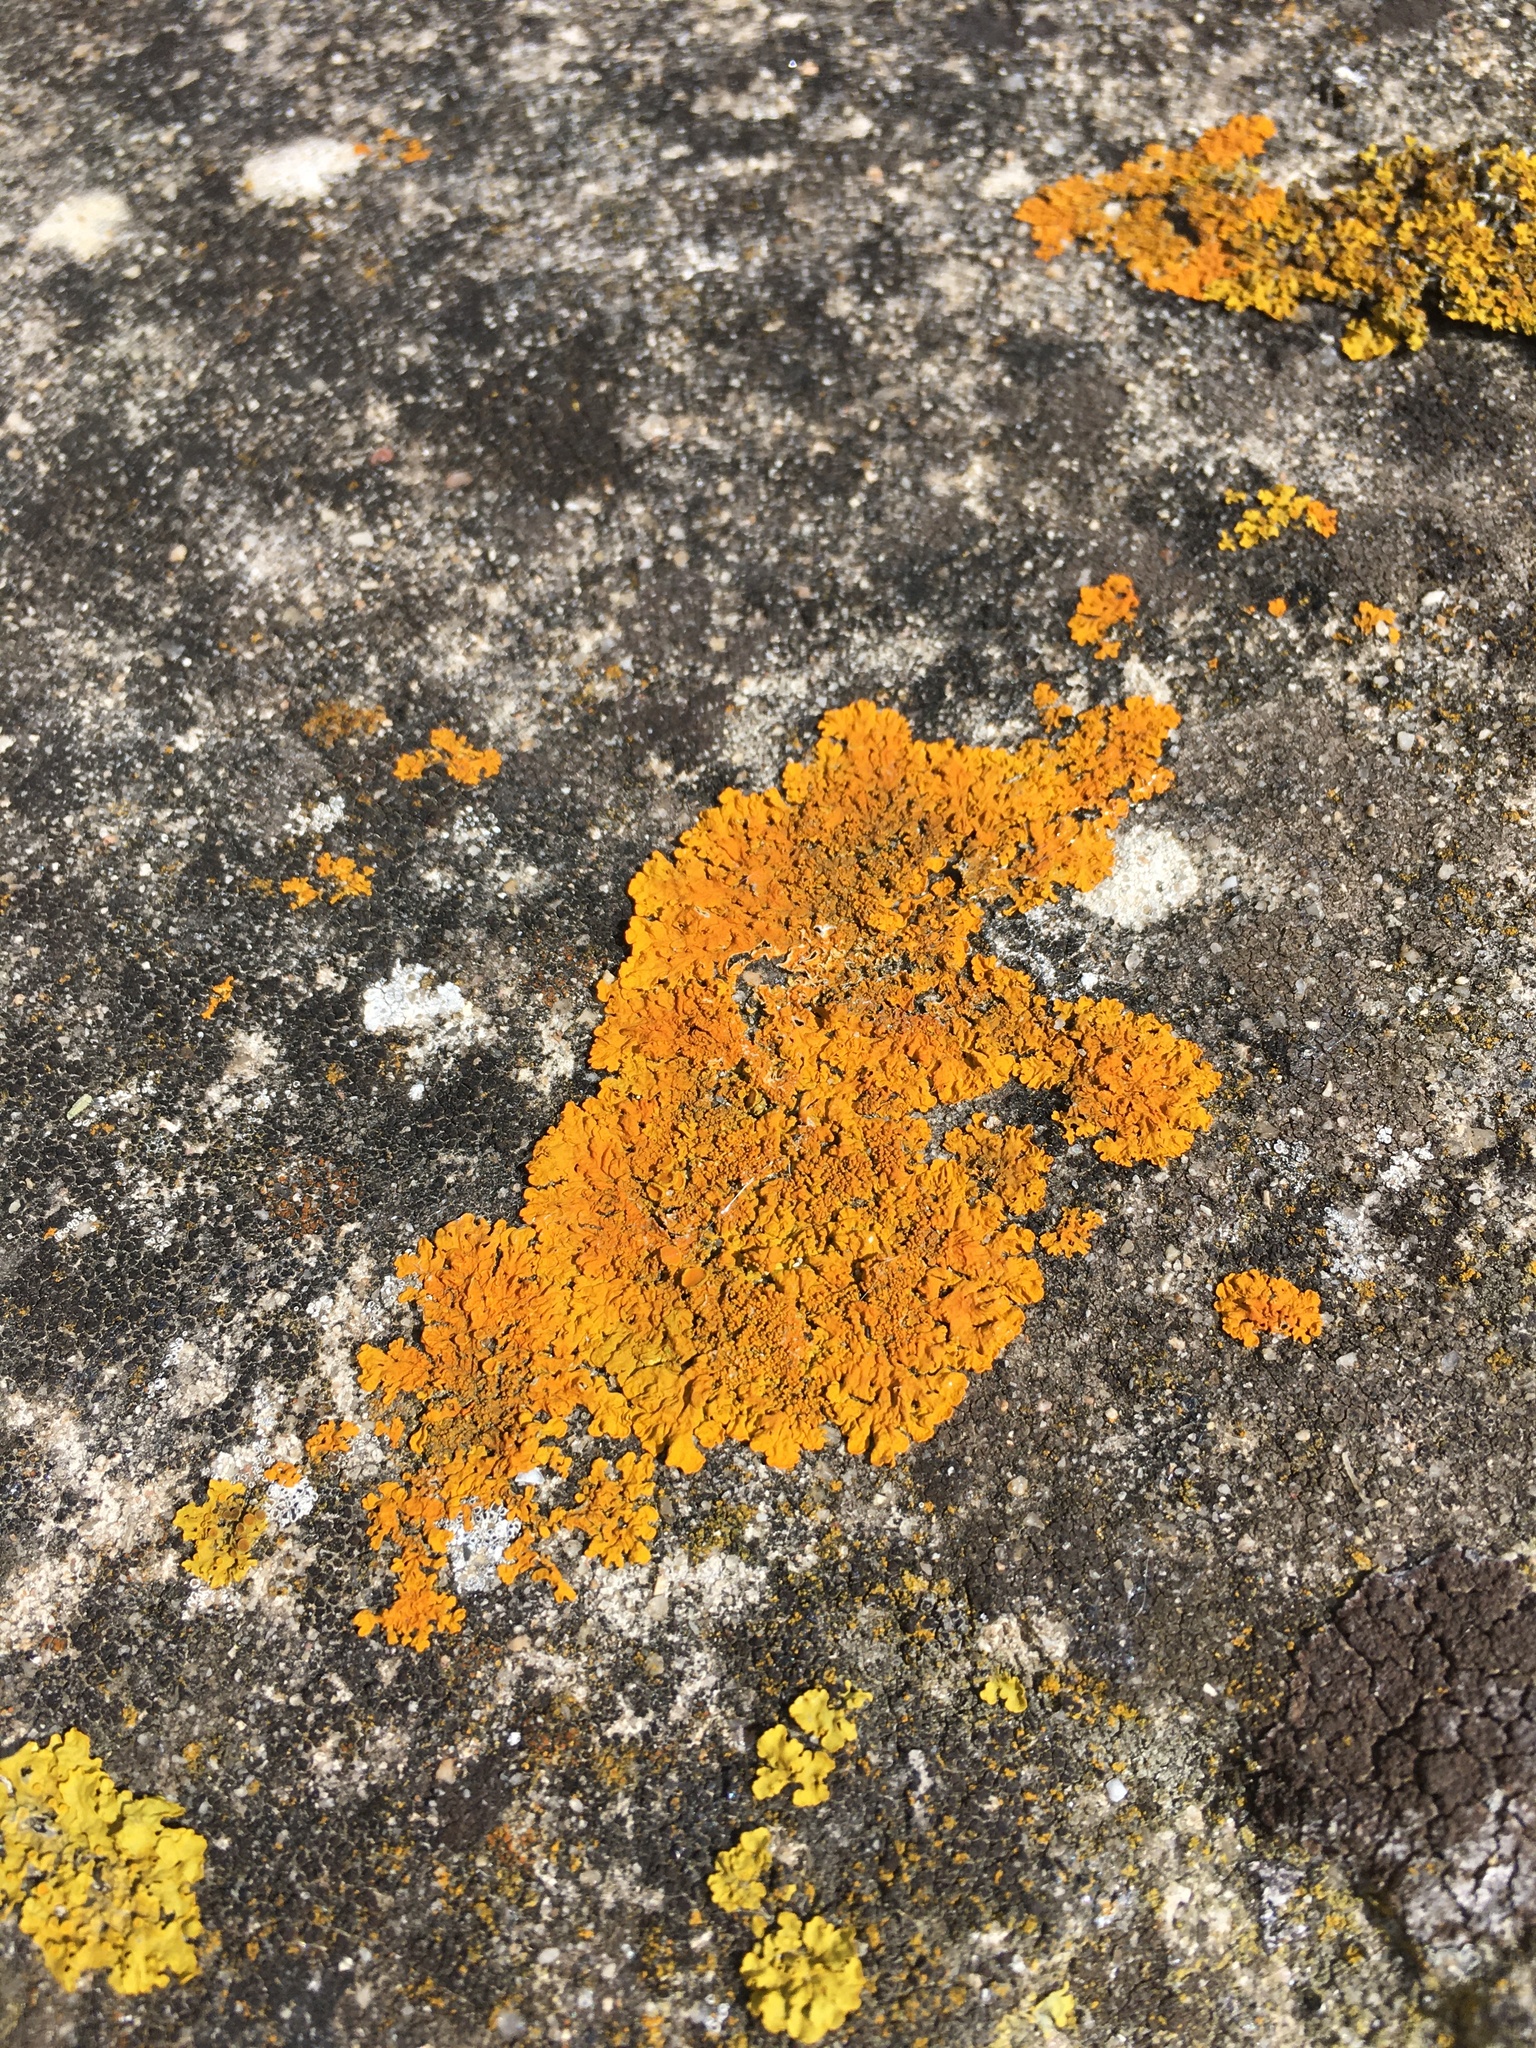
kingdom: Fungi
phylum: Ascomycota
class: Lecanoromycetes
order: Teloschistales
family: Teloschistaceae
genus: Xanthoria
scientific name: Xanthoria parietina
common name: Common orange lichen
